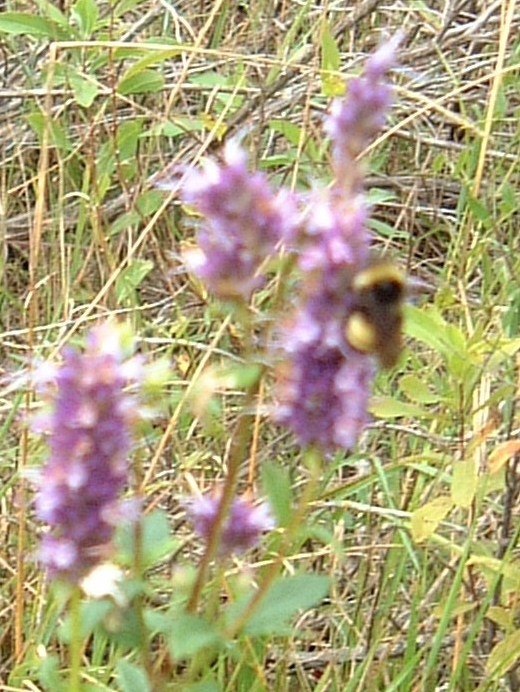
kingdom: Animalia
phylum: Arthropoda
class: Insecta
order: Hymenoptera
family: Apidae
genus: Bombus
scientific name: Bombus terricola
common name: Yellow-banded bumble bee
